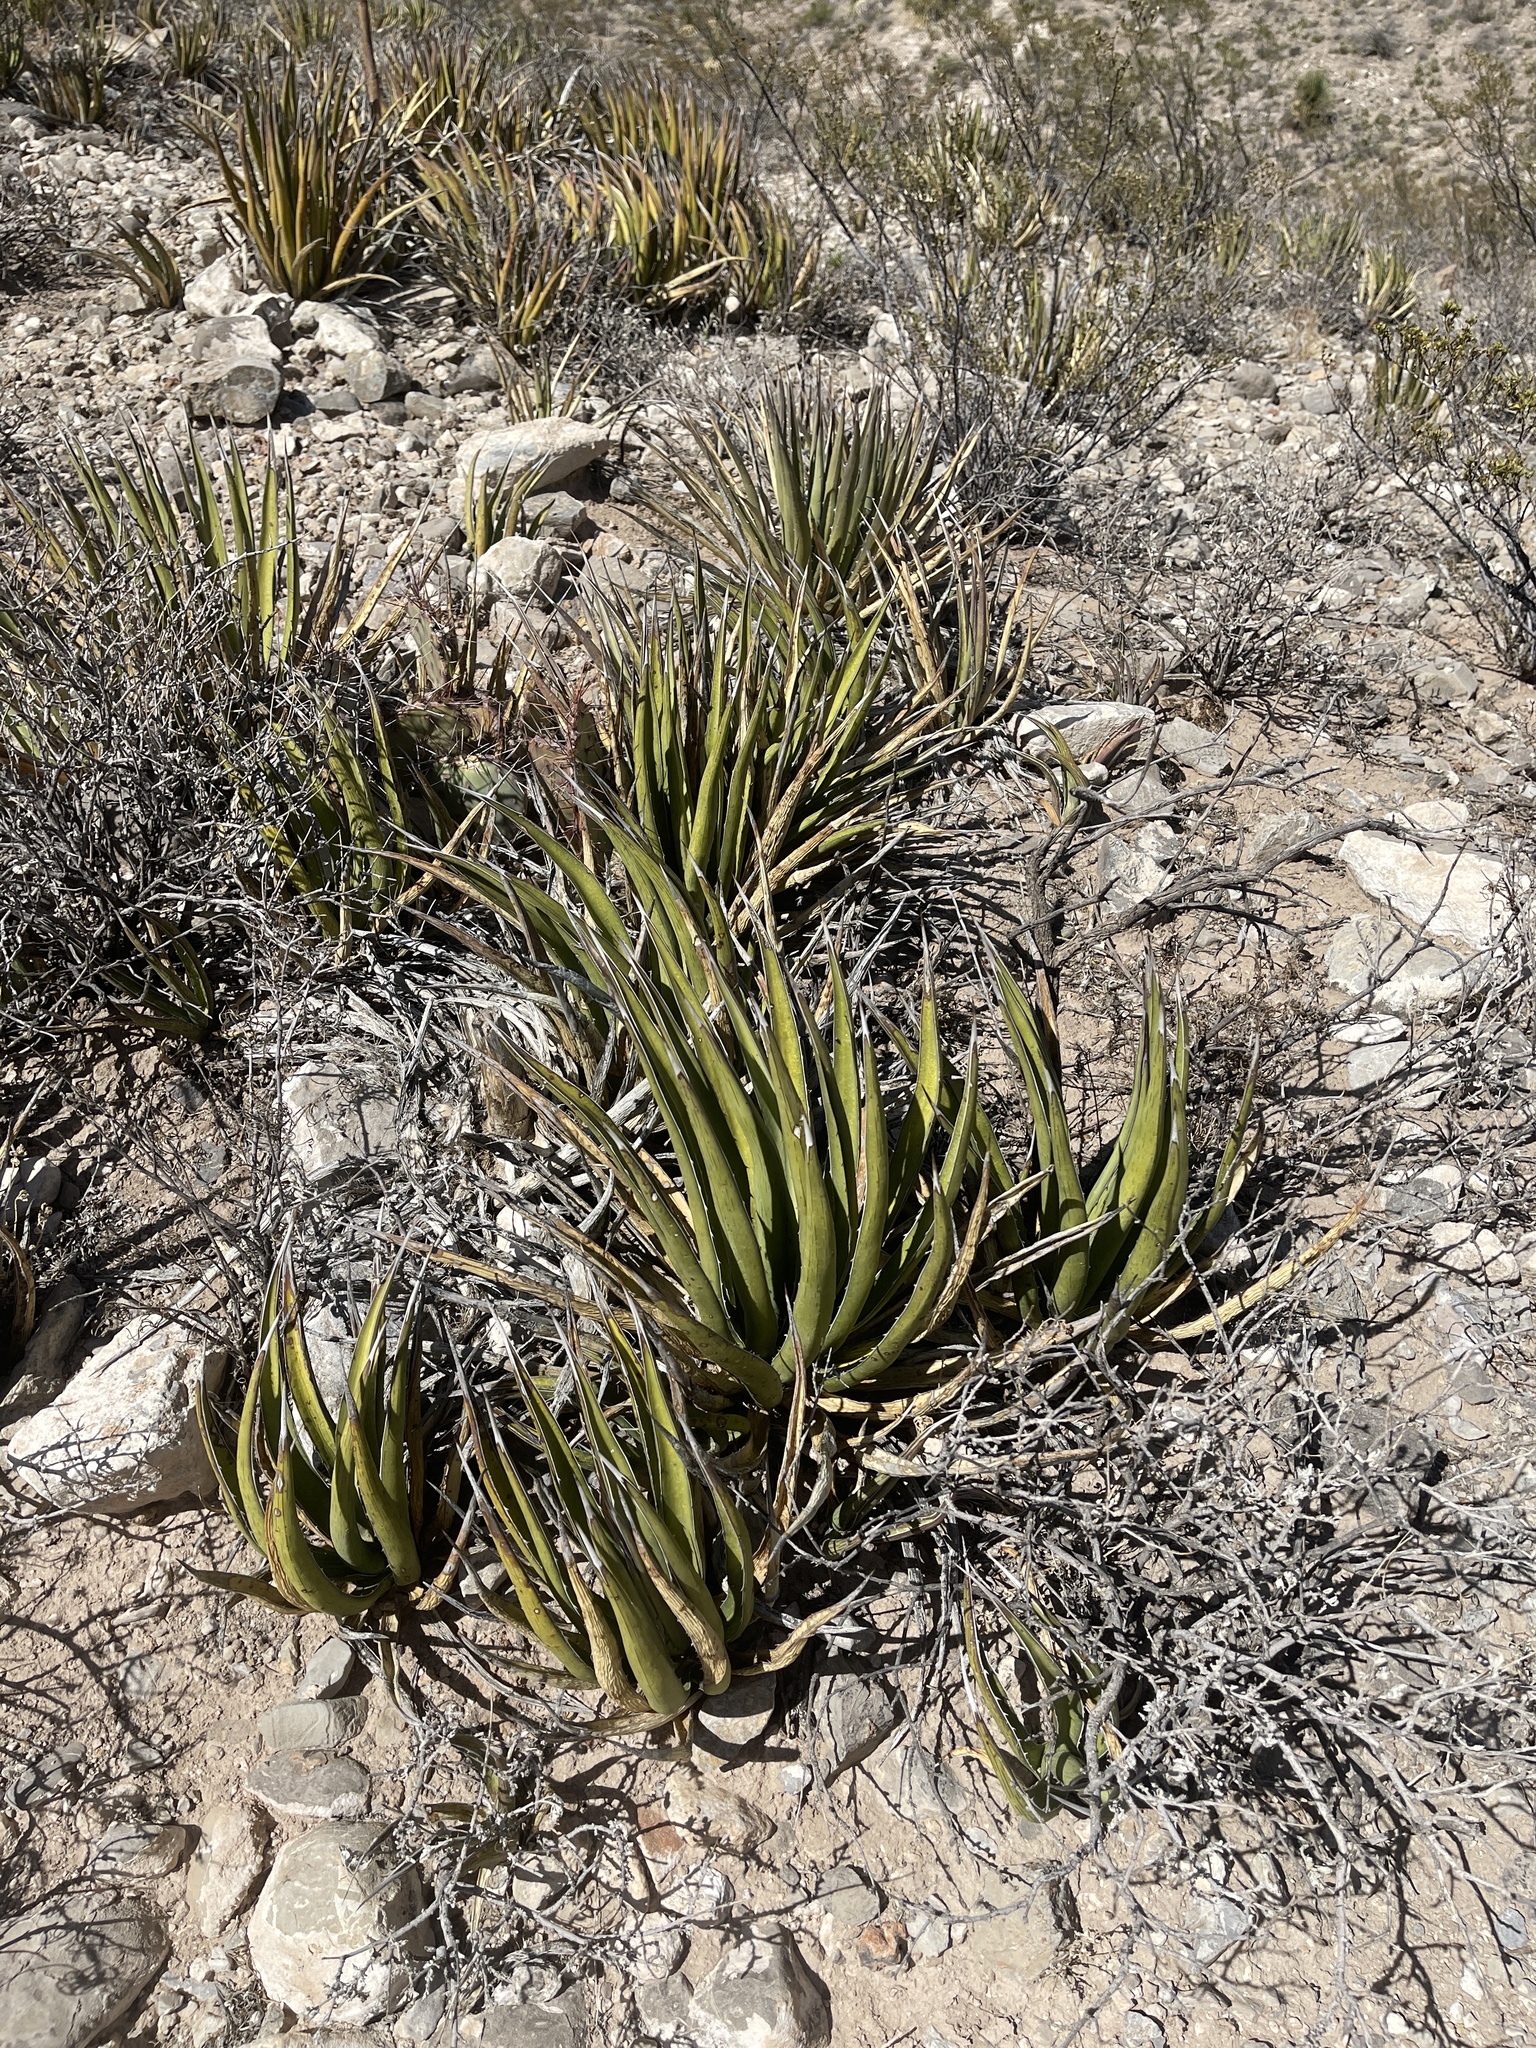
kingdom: Plantae
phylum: Tracheophyta
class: Liliopsida
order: Asparagales
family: Asparagaceae
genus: Agave
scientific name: Agave lechuguilla
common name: Lecheguilla agave
